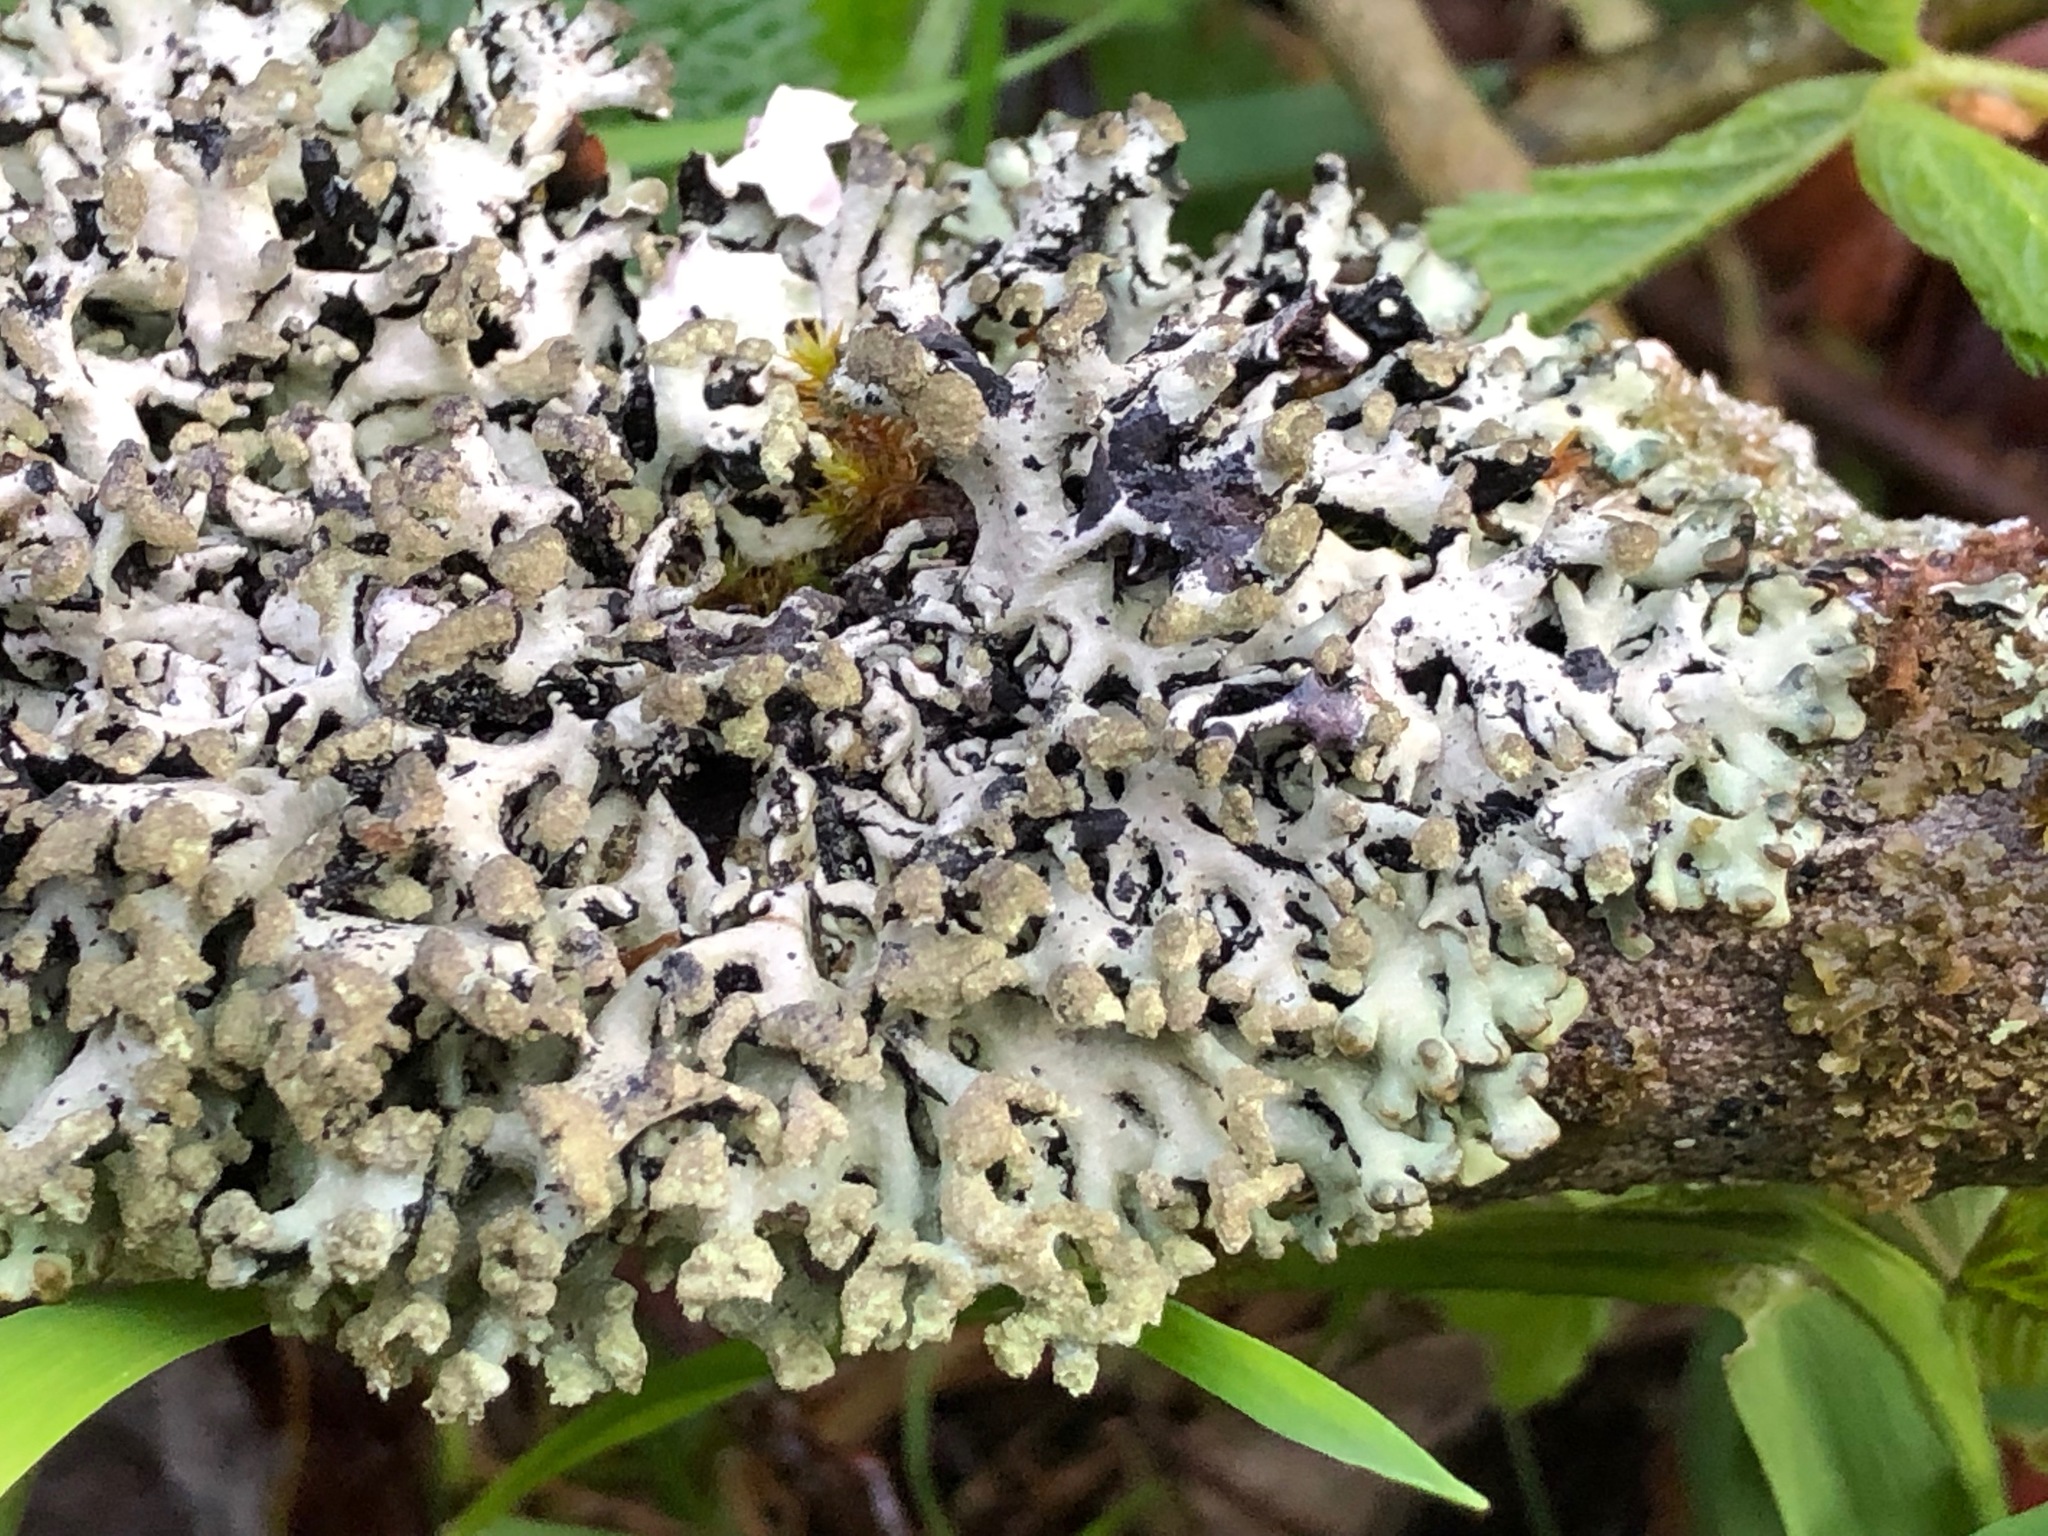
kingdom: Fungi
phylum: Ascomycota
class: Lecanoromycetes
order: Lecanorales
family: Parmeliaceae
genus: Hypogymnia
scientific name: Hypogymnia tubulosa
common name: Powder-headed tube lichen
